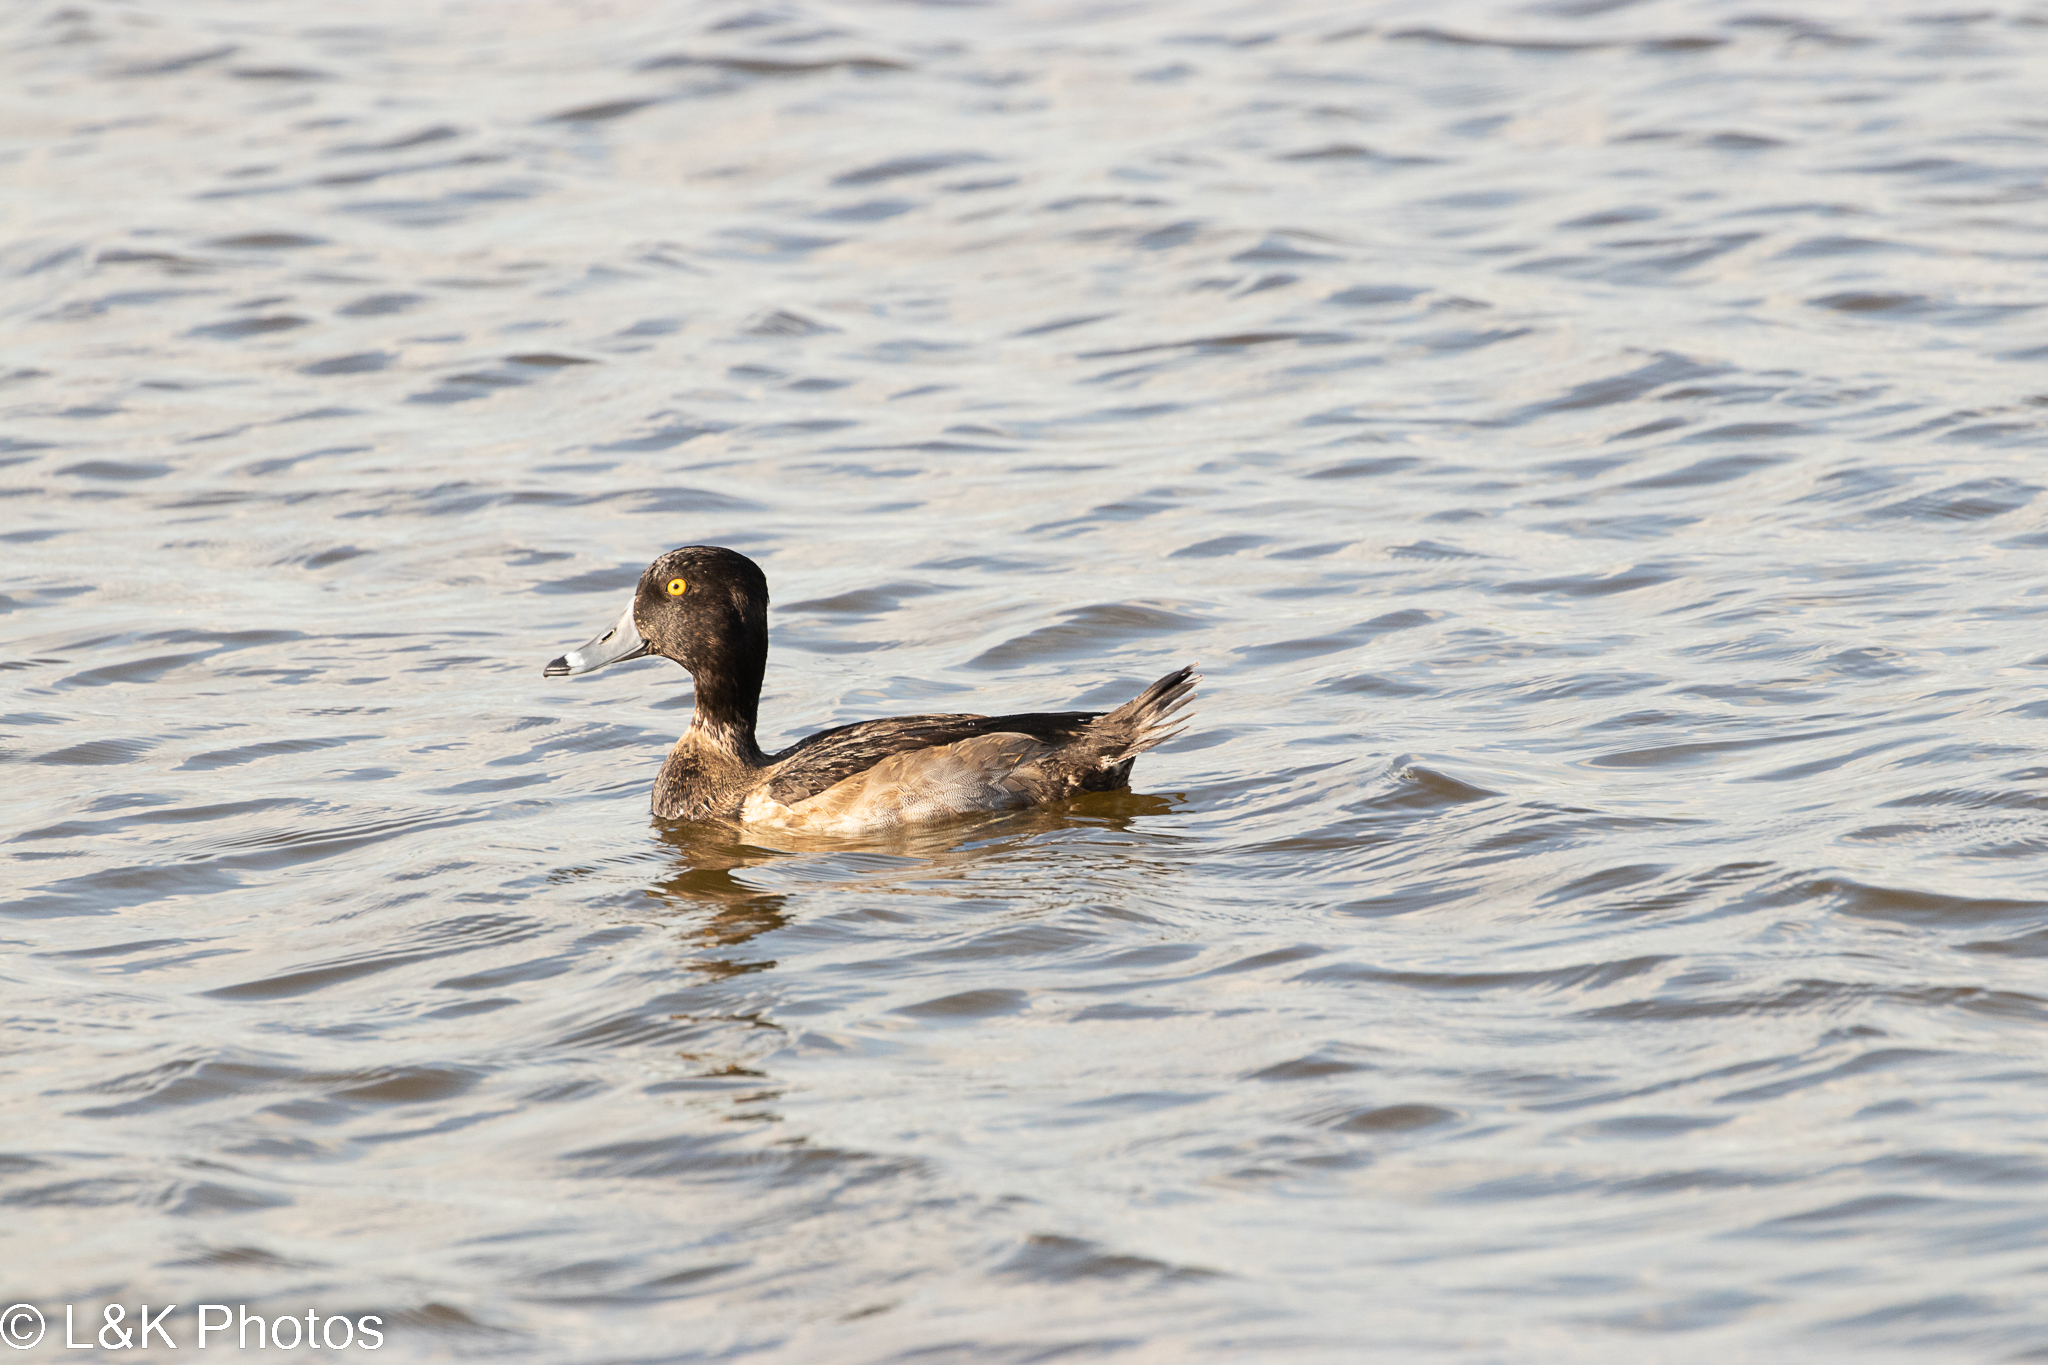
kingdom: Animalia
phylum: Chordata
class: Aves
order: Anseriformes
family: Anatidae
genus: Aythya
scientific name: Aythya collaris
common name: Ring-necked duck
